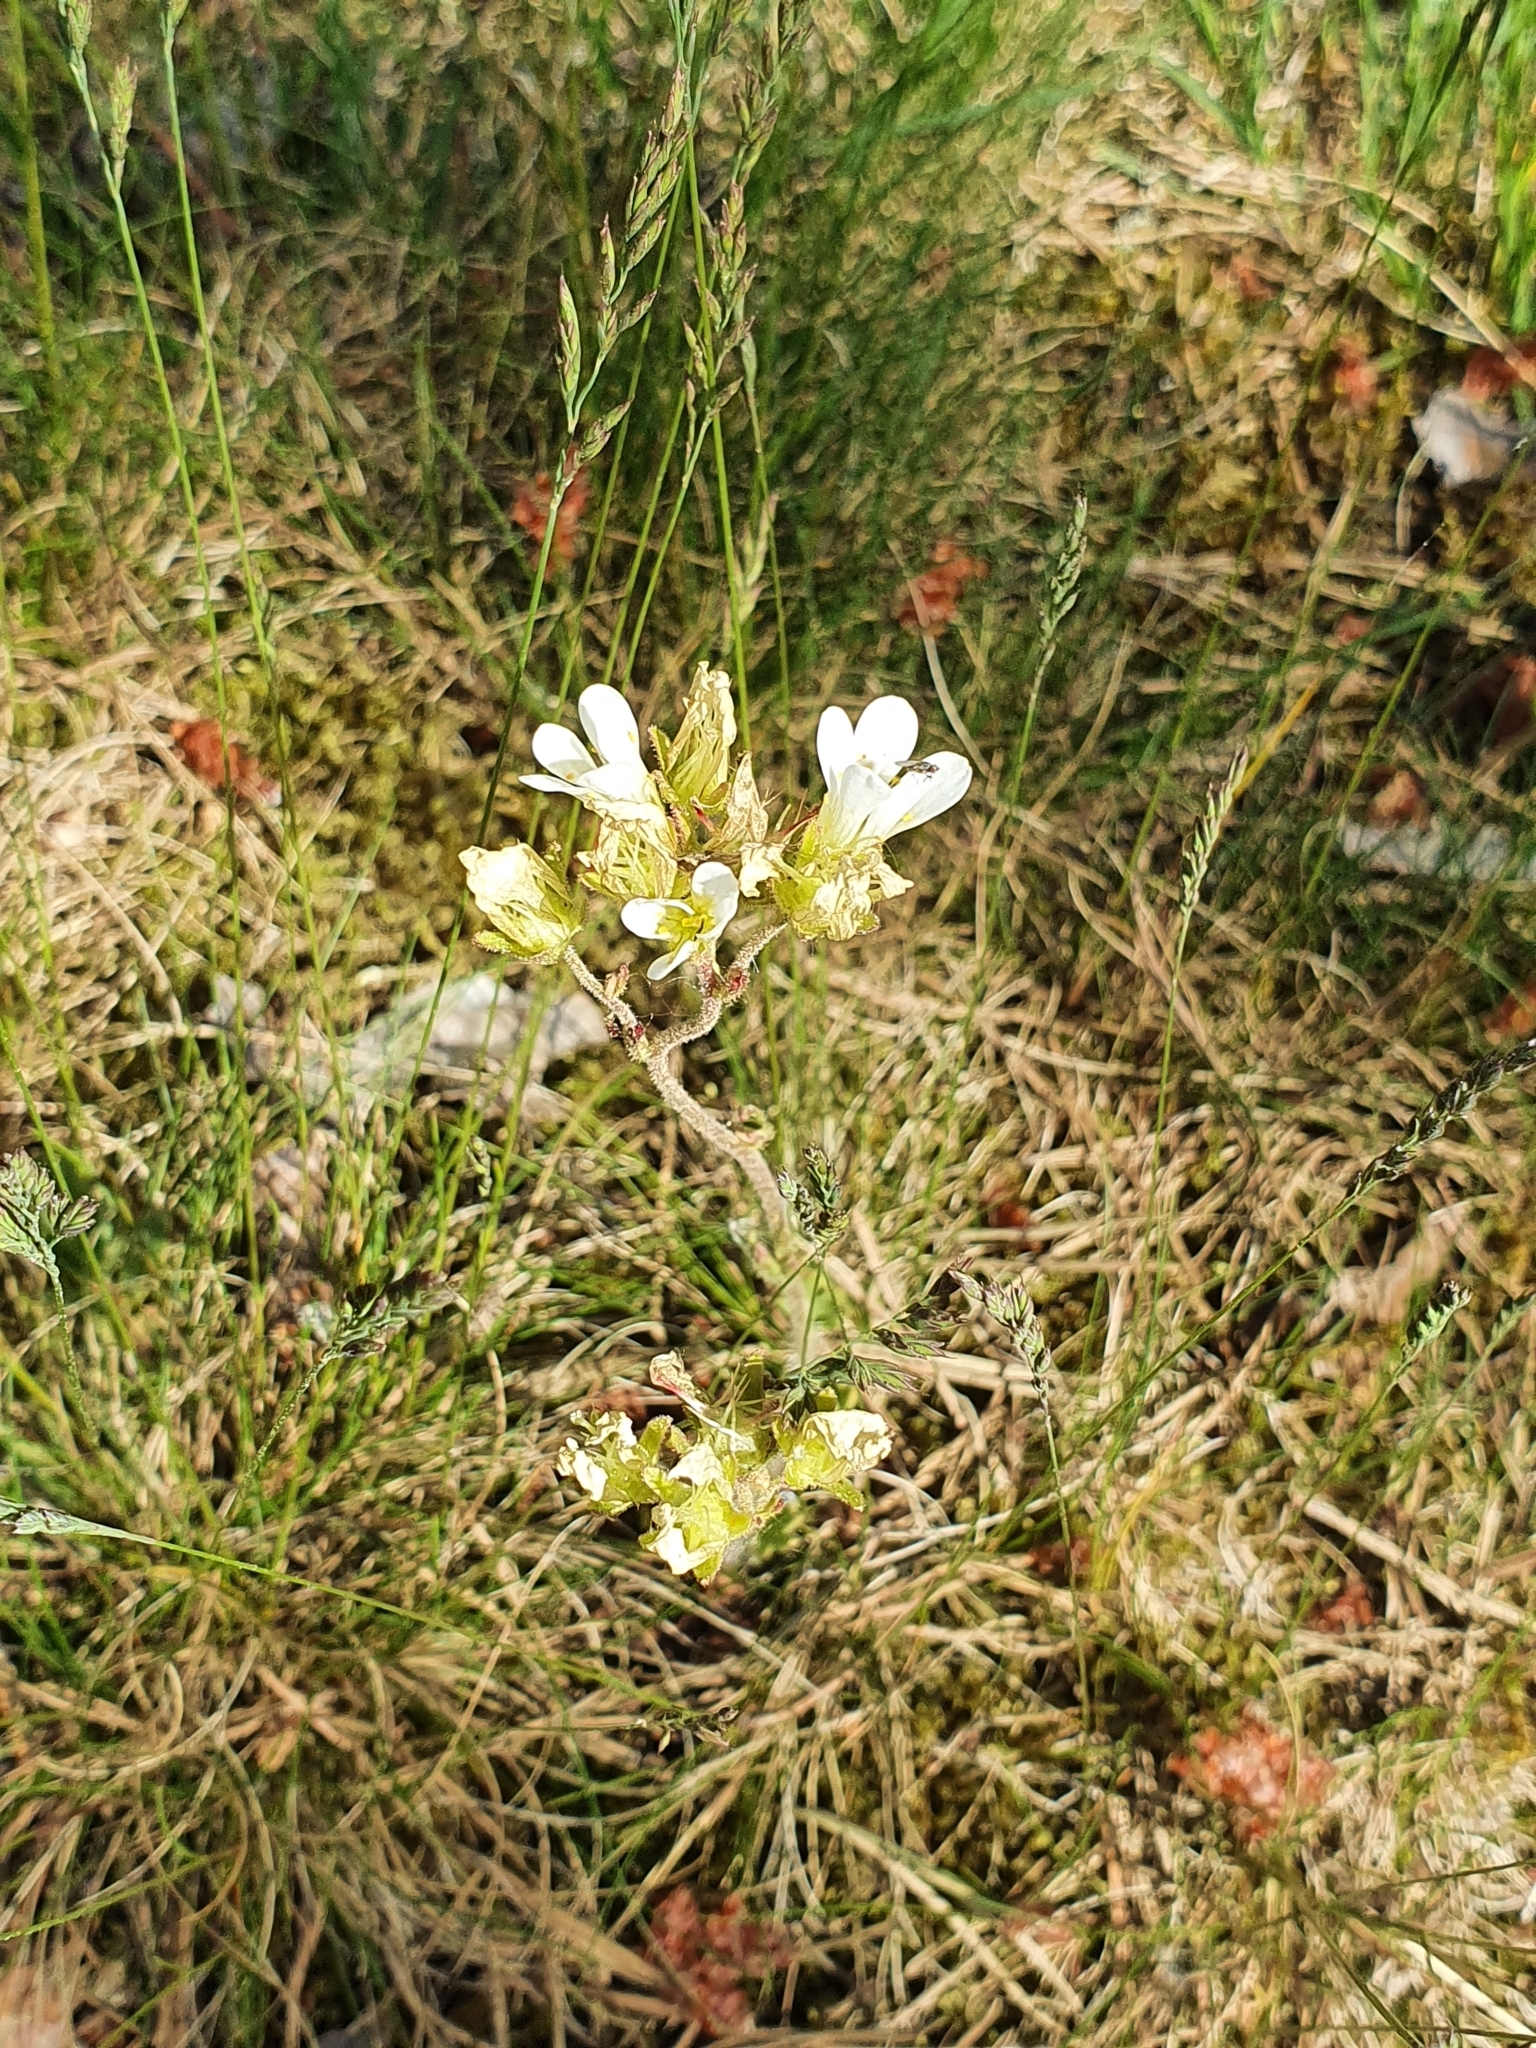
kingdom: Plantae
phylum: Tracheophyta
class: Magnoliopsida
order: Saxifragales
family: Saxifragaceae
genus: Saxifraga
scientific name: Saxifraga granulata
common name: Meadow saxifrage
